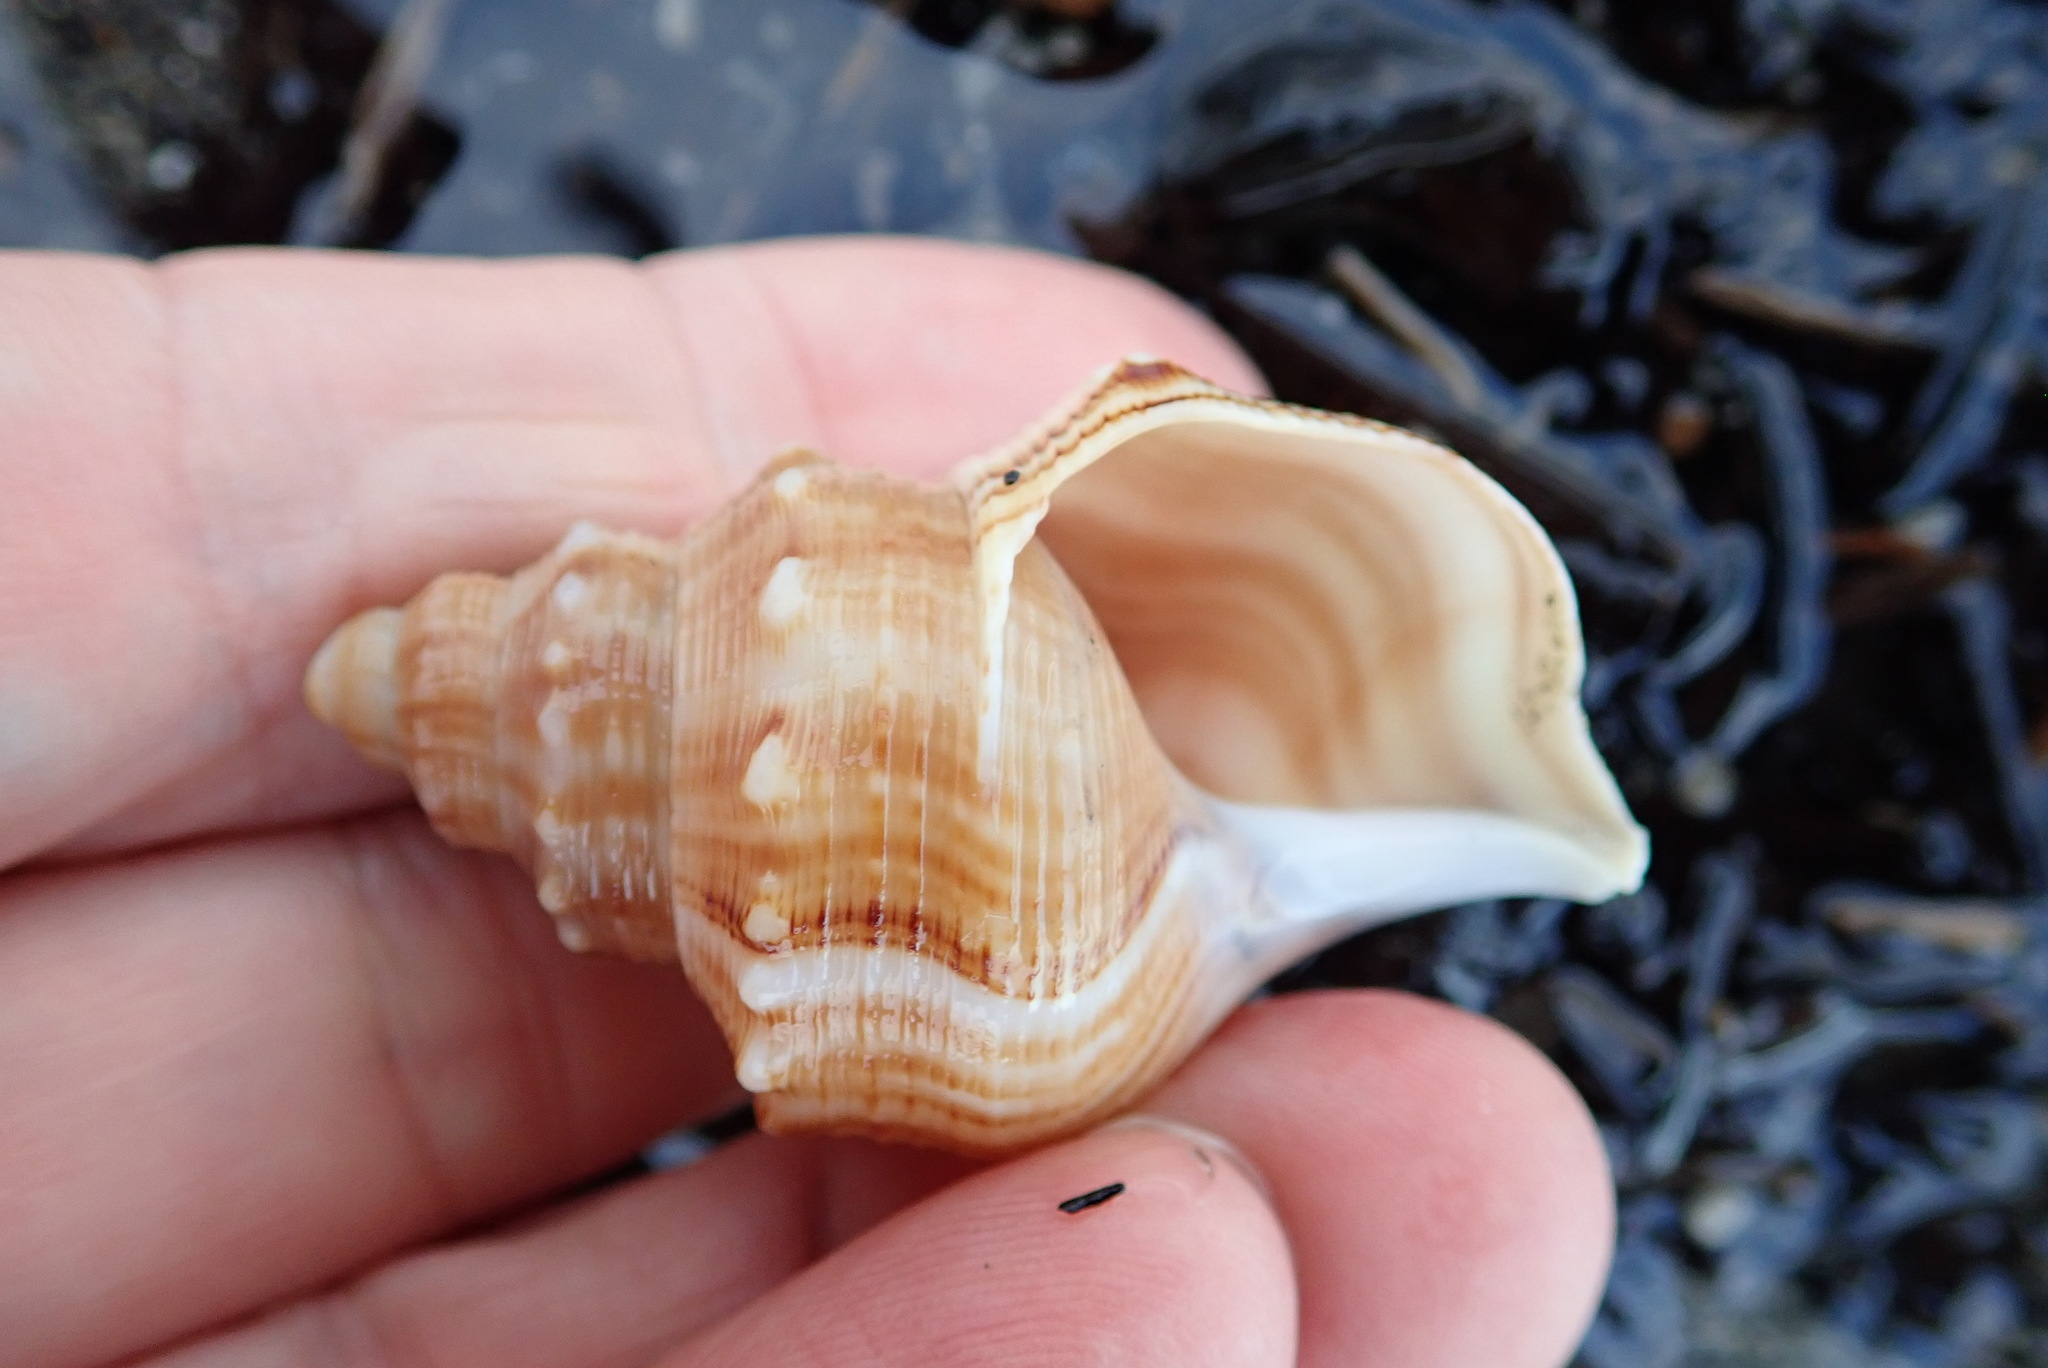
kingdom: Animalia
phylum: Mollusca
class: Gastropoda
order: Littorinimorpha
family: Struthiolariidae
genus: Struthiolaria
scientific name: Struthiolaria papulosa
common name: Large ostrich foot
